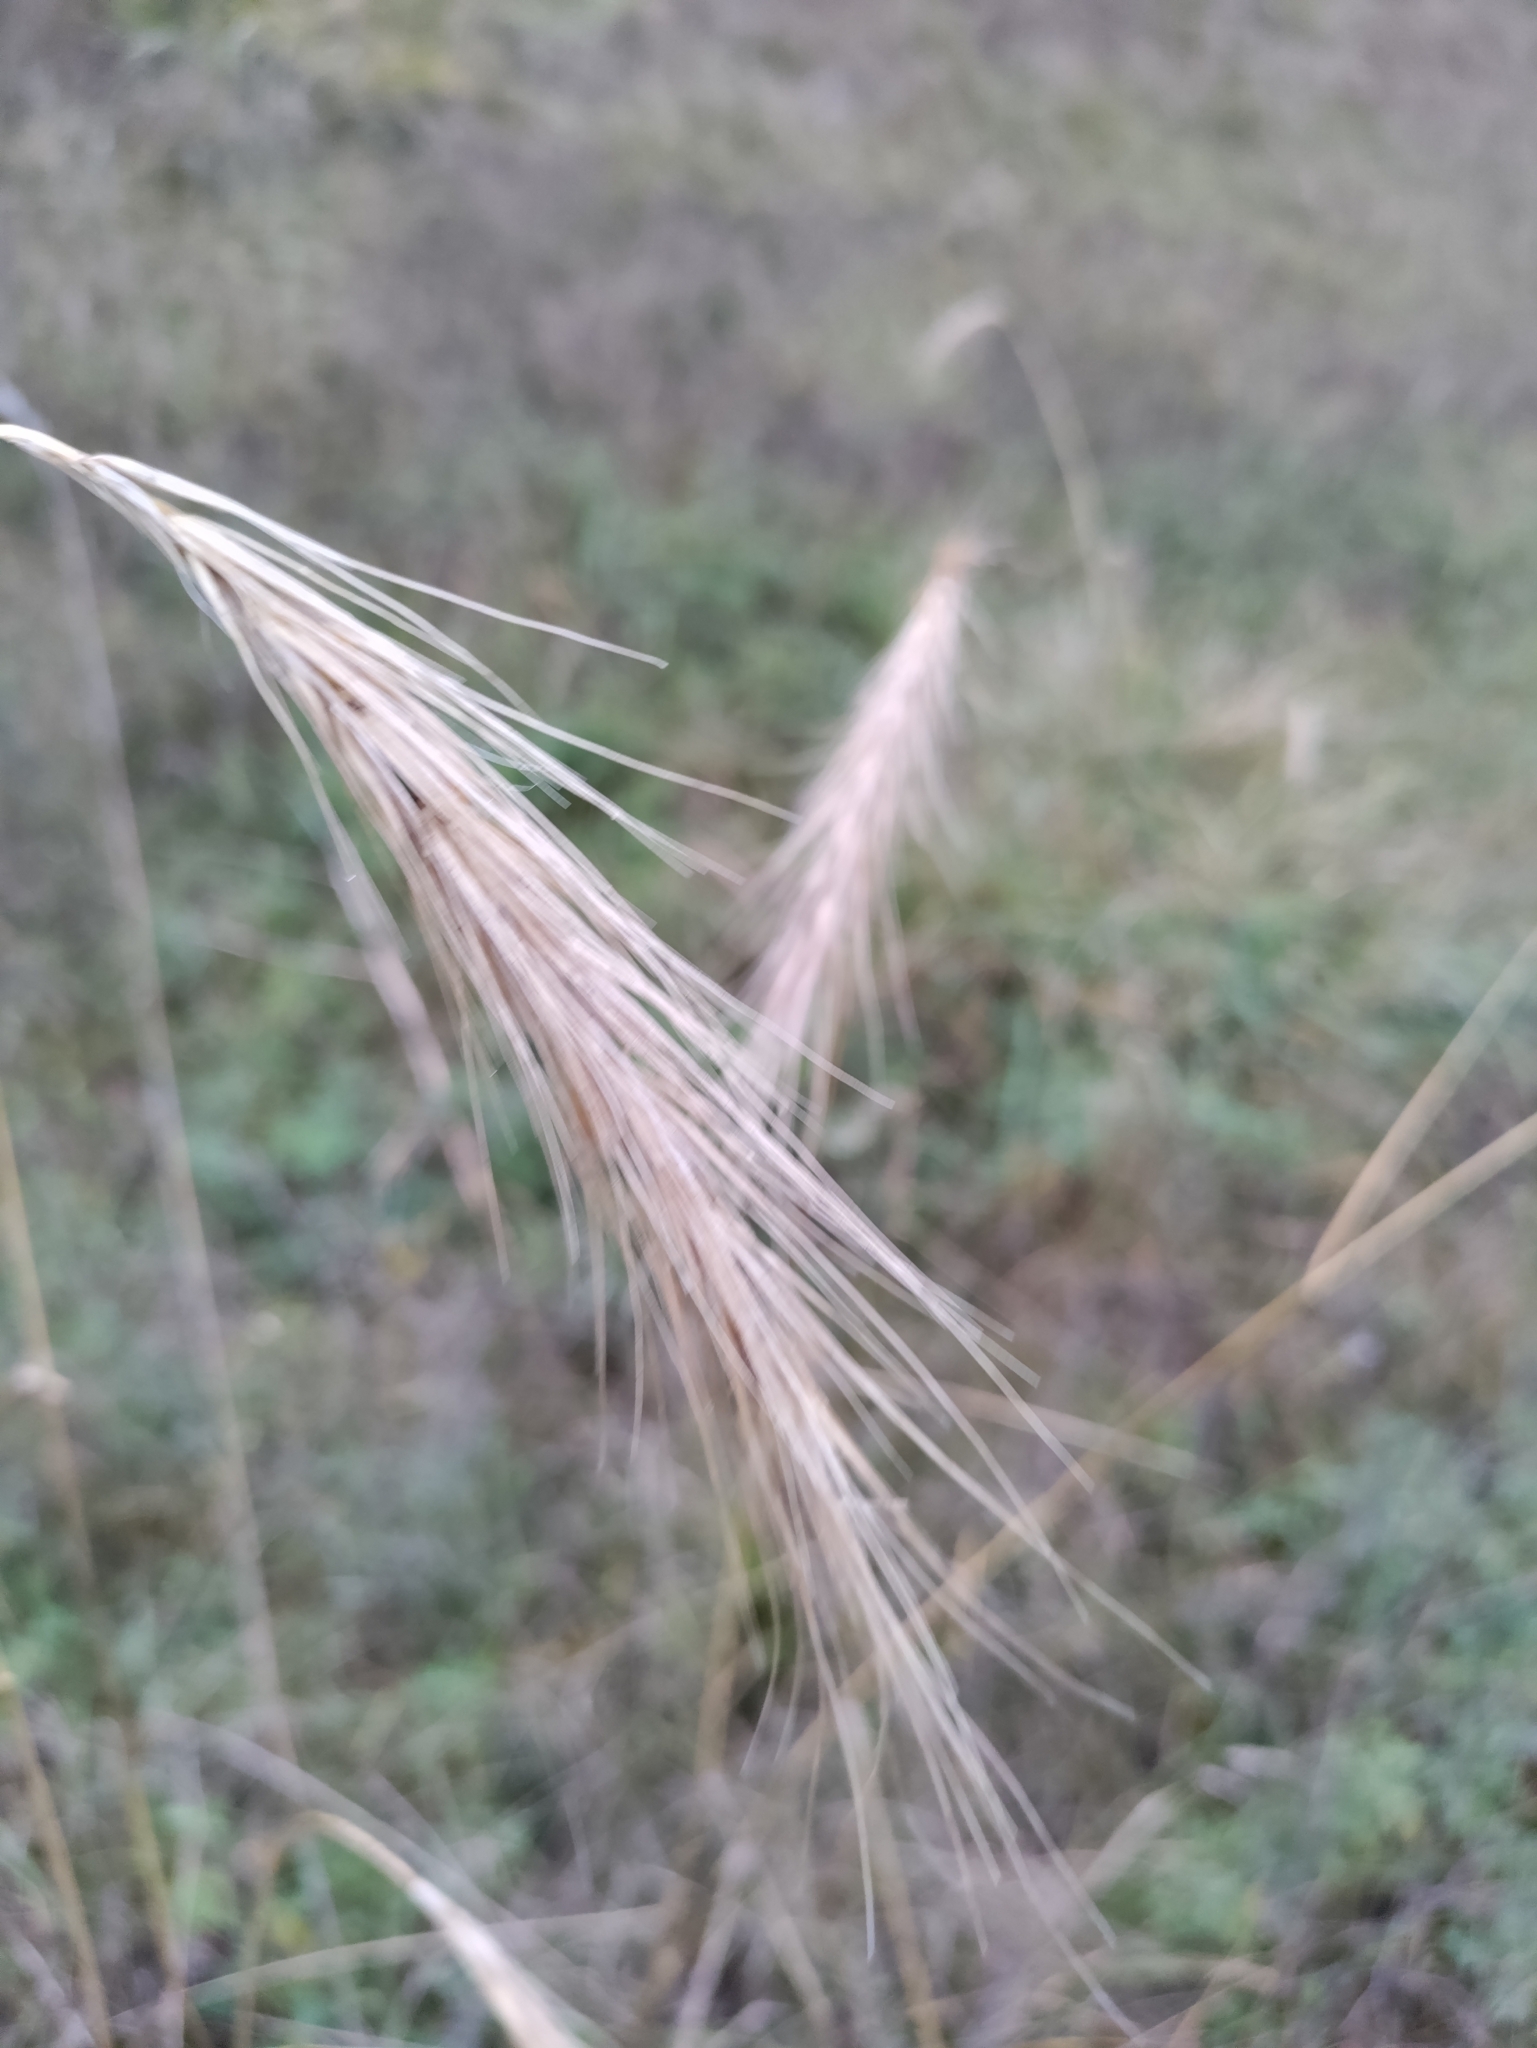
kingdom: Plantae
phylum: Tracheophyta
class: Liliopsida
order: Poales
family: Poaceae
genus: Elymus
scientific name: Elymus canadensis
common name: Canada wild rye
